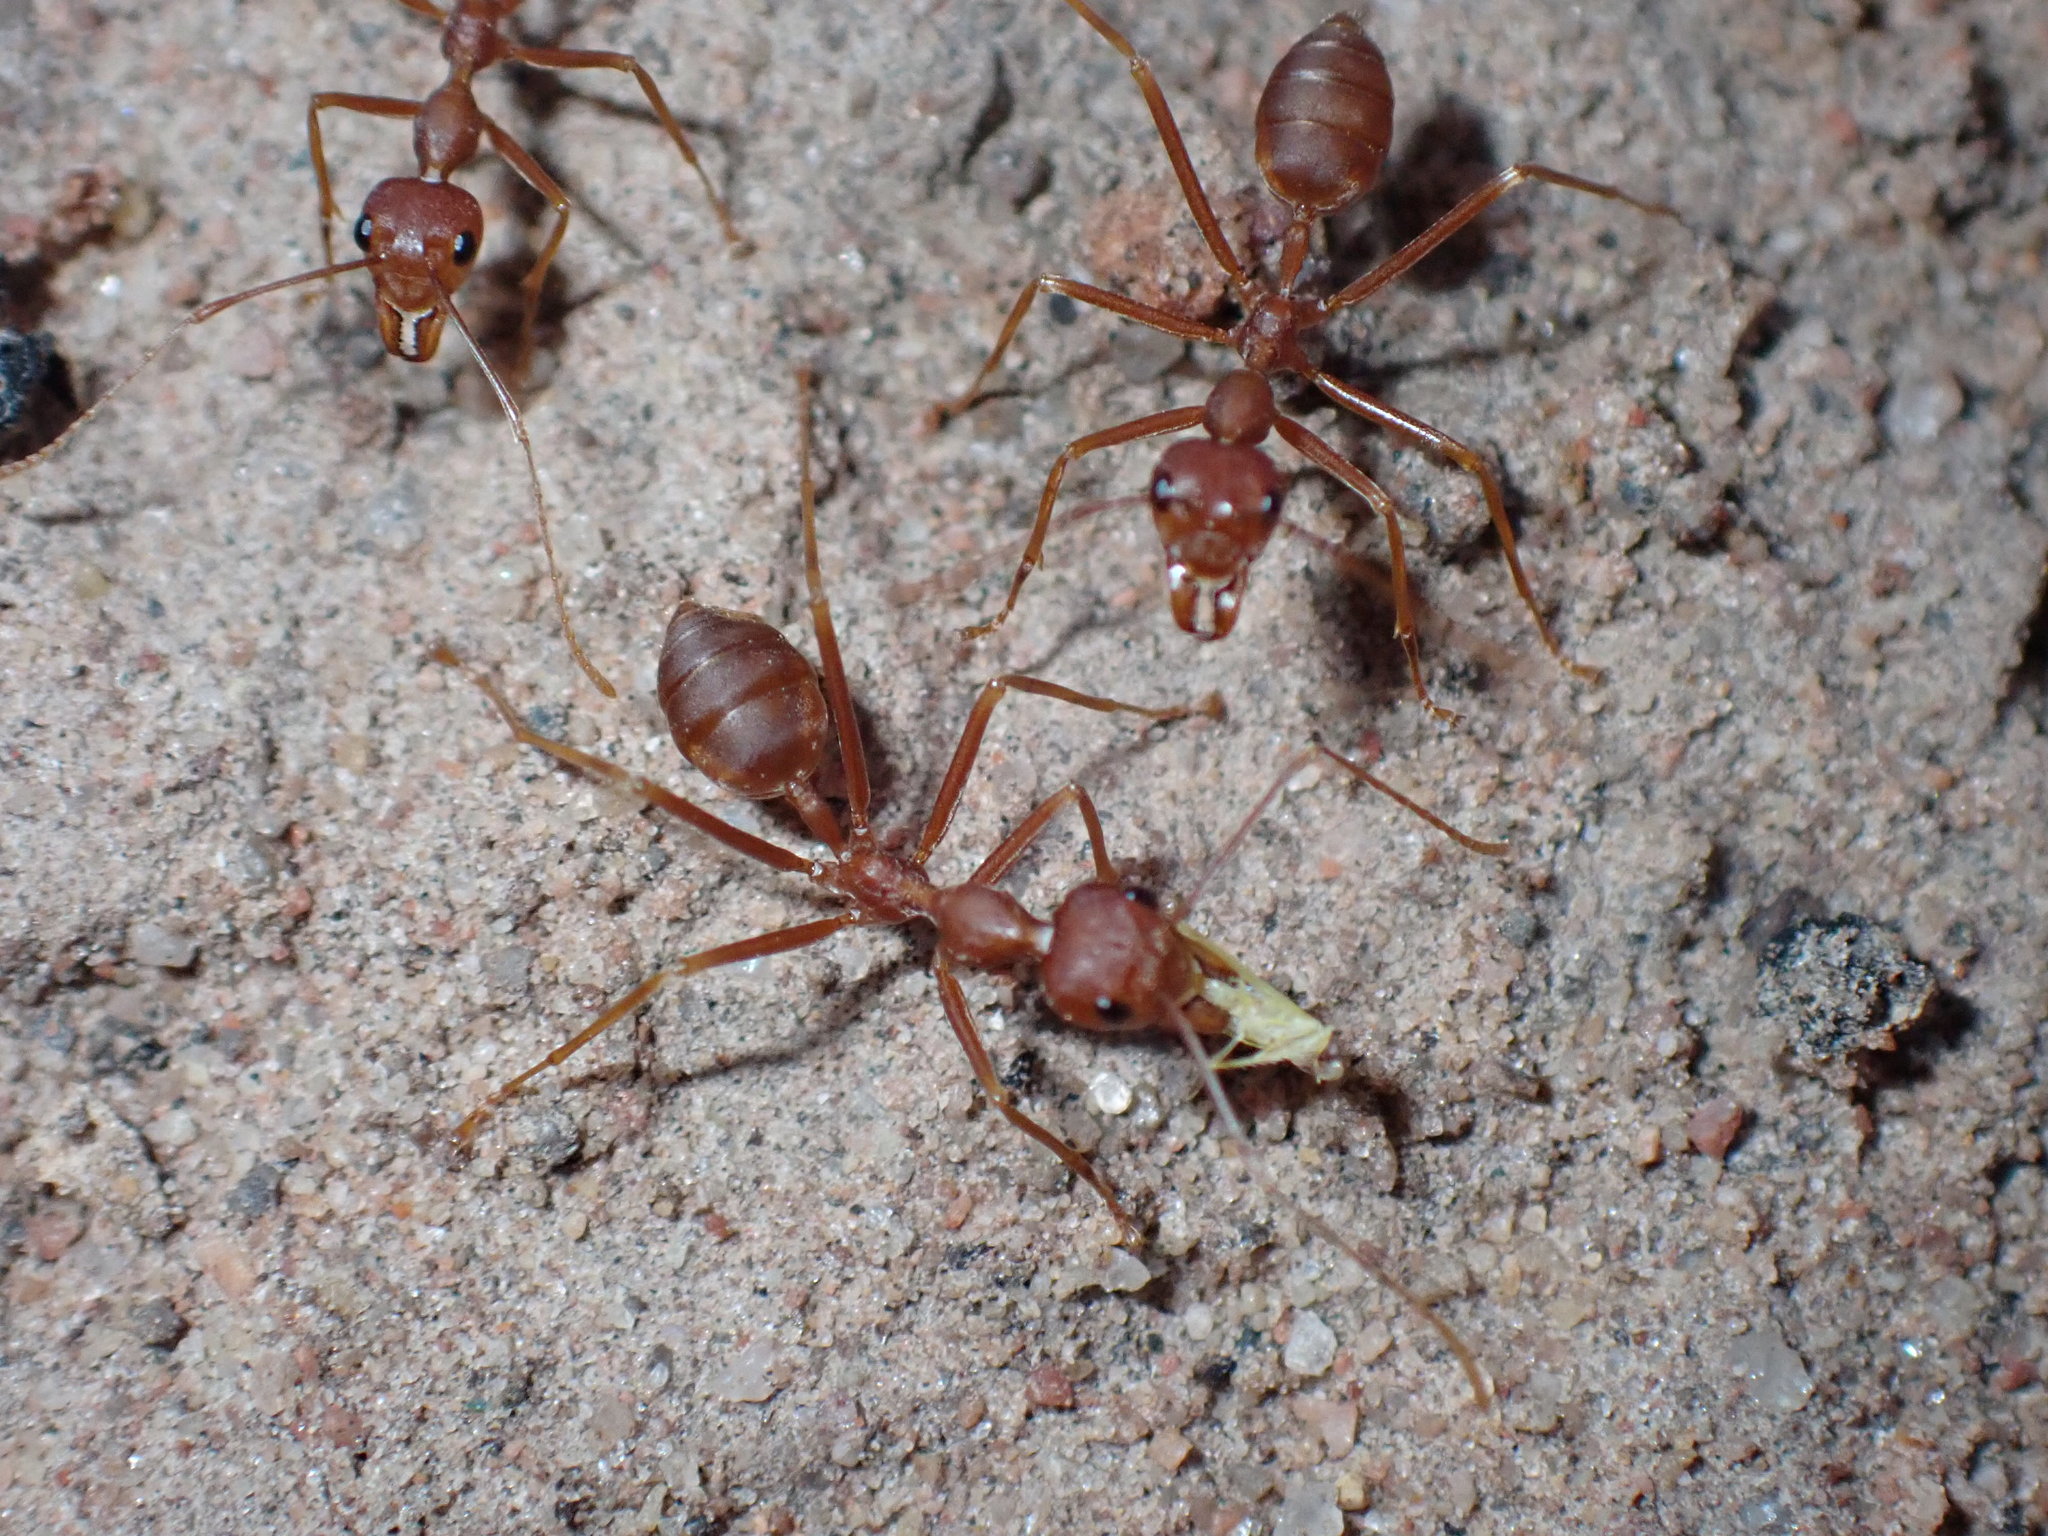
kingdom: Animalia
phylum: Arthropoda
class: Insecta
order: Hymenoptera
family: Formicidae
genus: Oecophylla
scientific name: Oecophylla smaragdina
